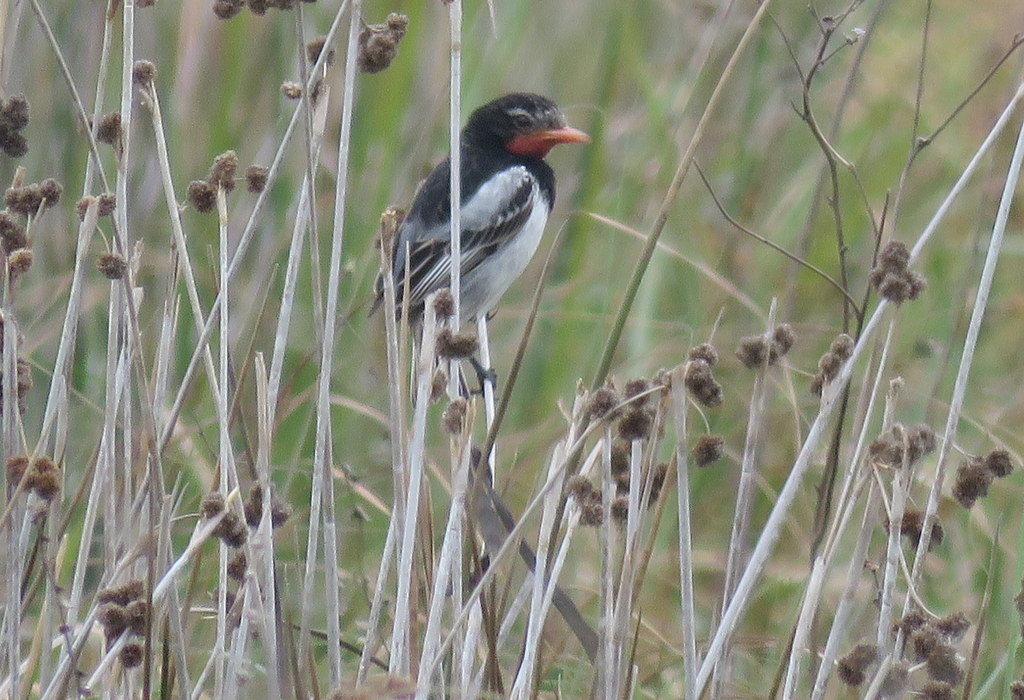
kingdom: Animalia
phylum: Chordata
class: Aves
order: Passeriformes
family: Tyrannidae
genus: Alectrurus
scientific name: Alectrurus risora
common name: Strange-tailed tyrant
